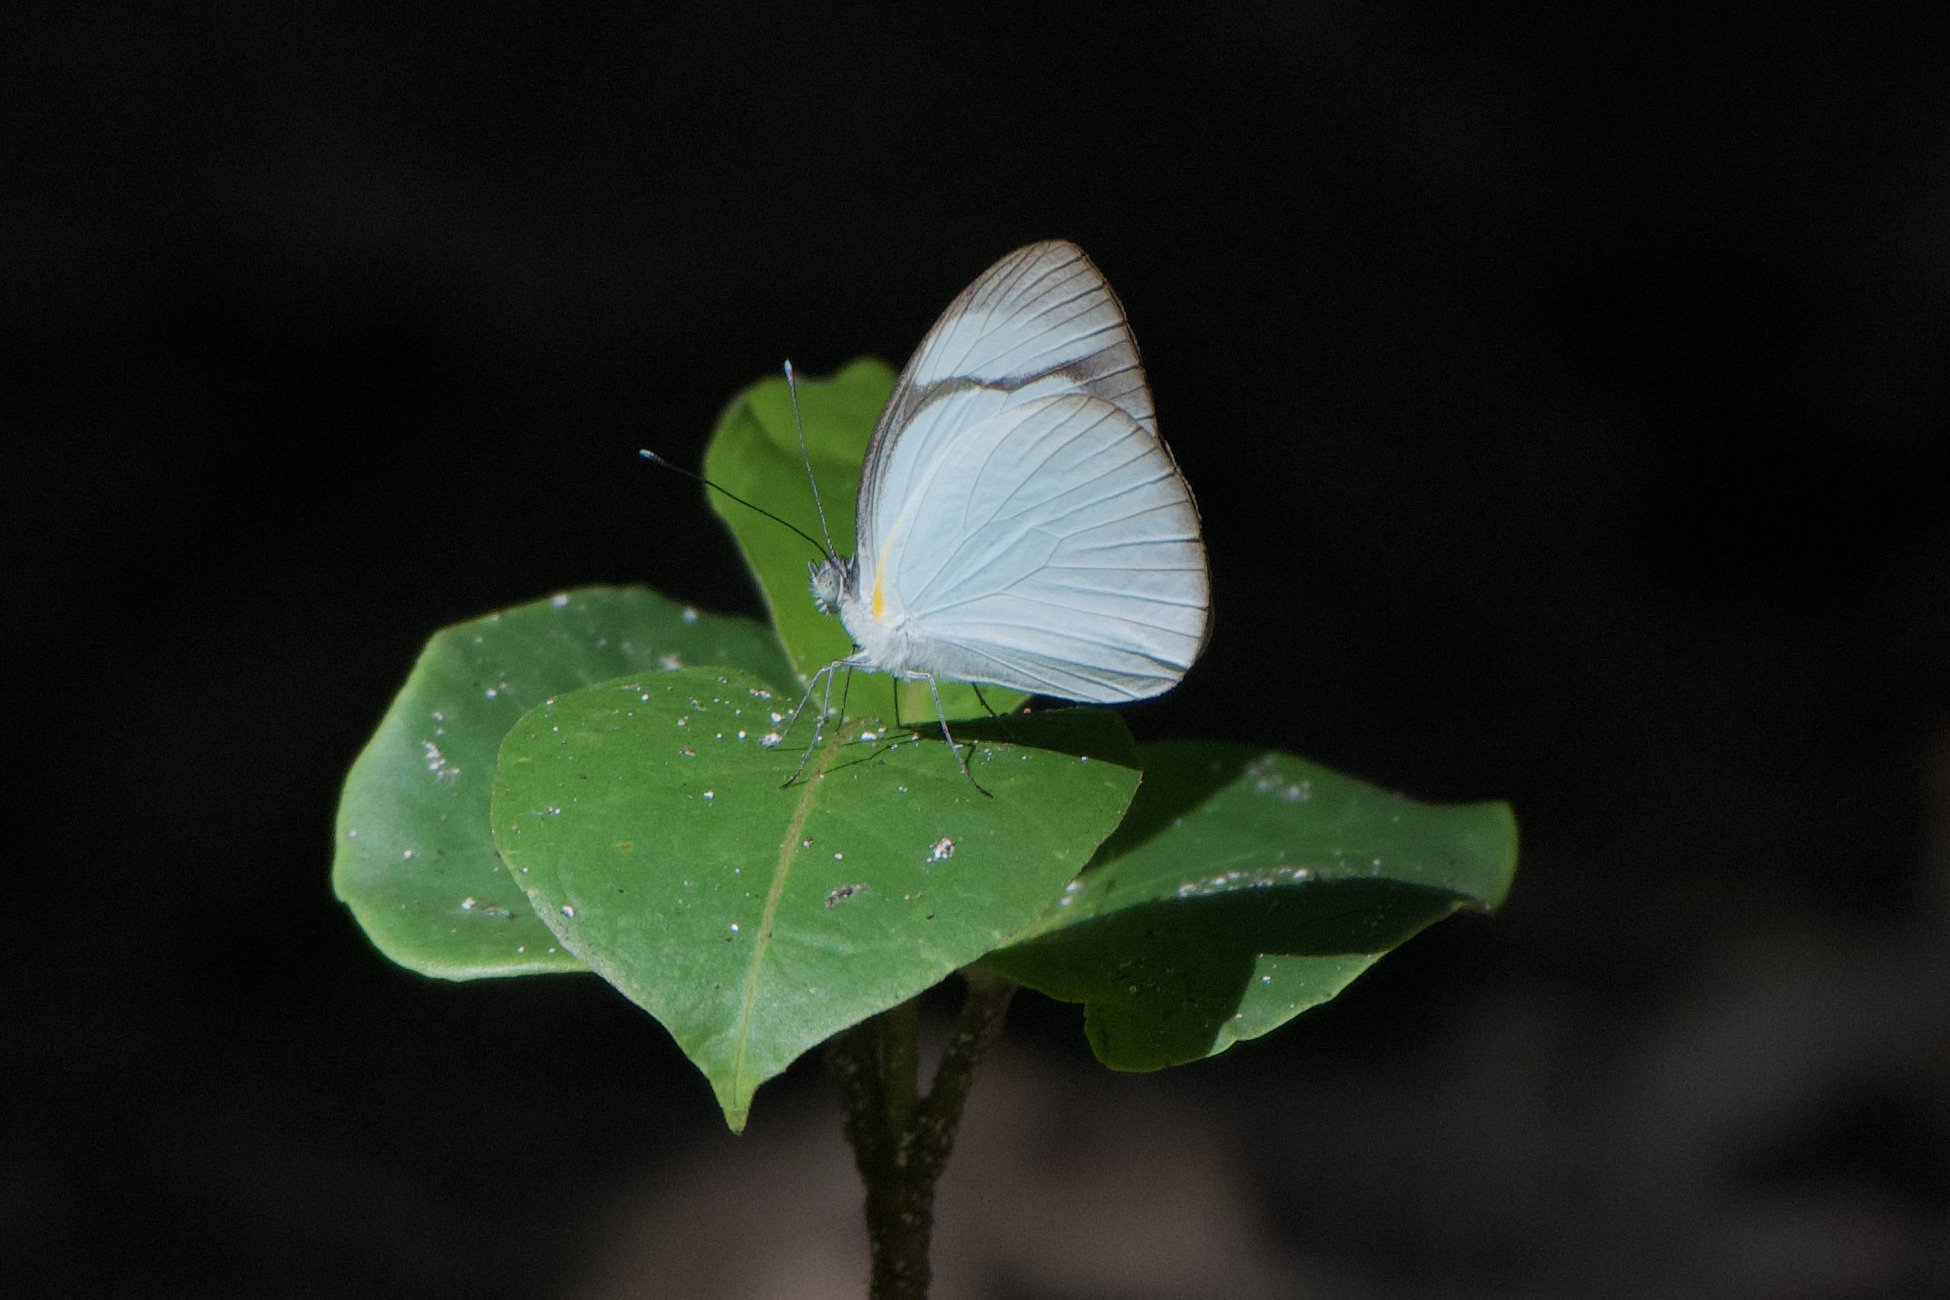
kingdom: Animalia
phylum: Arthropoda
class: Insecta
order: Lepidoptera
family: Pieridae
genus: Itaballia
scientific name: Itaballia demophile
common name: Cross-barred white
